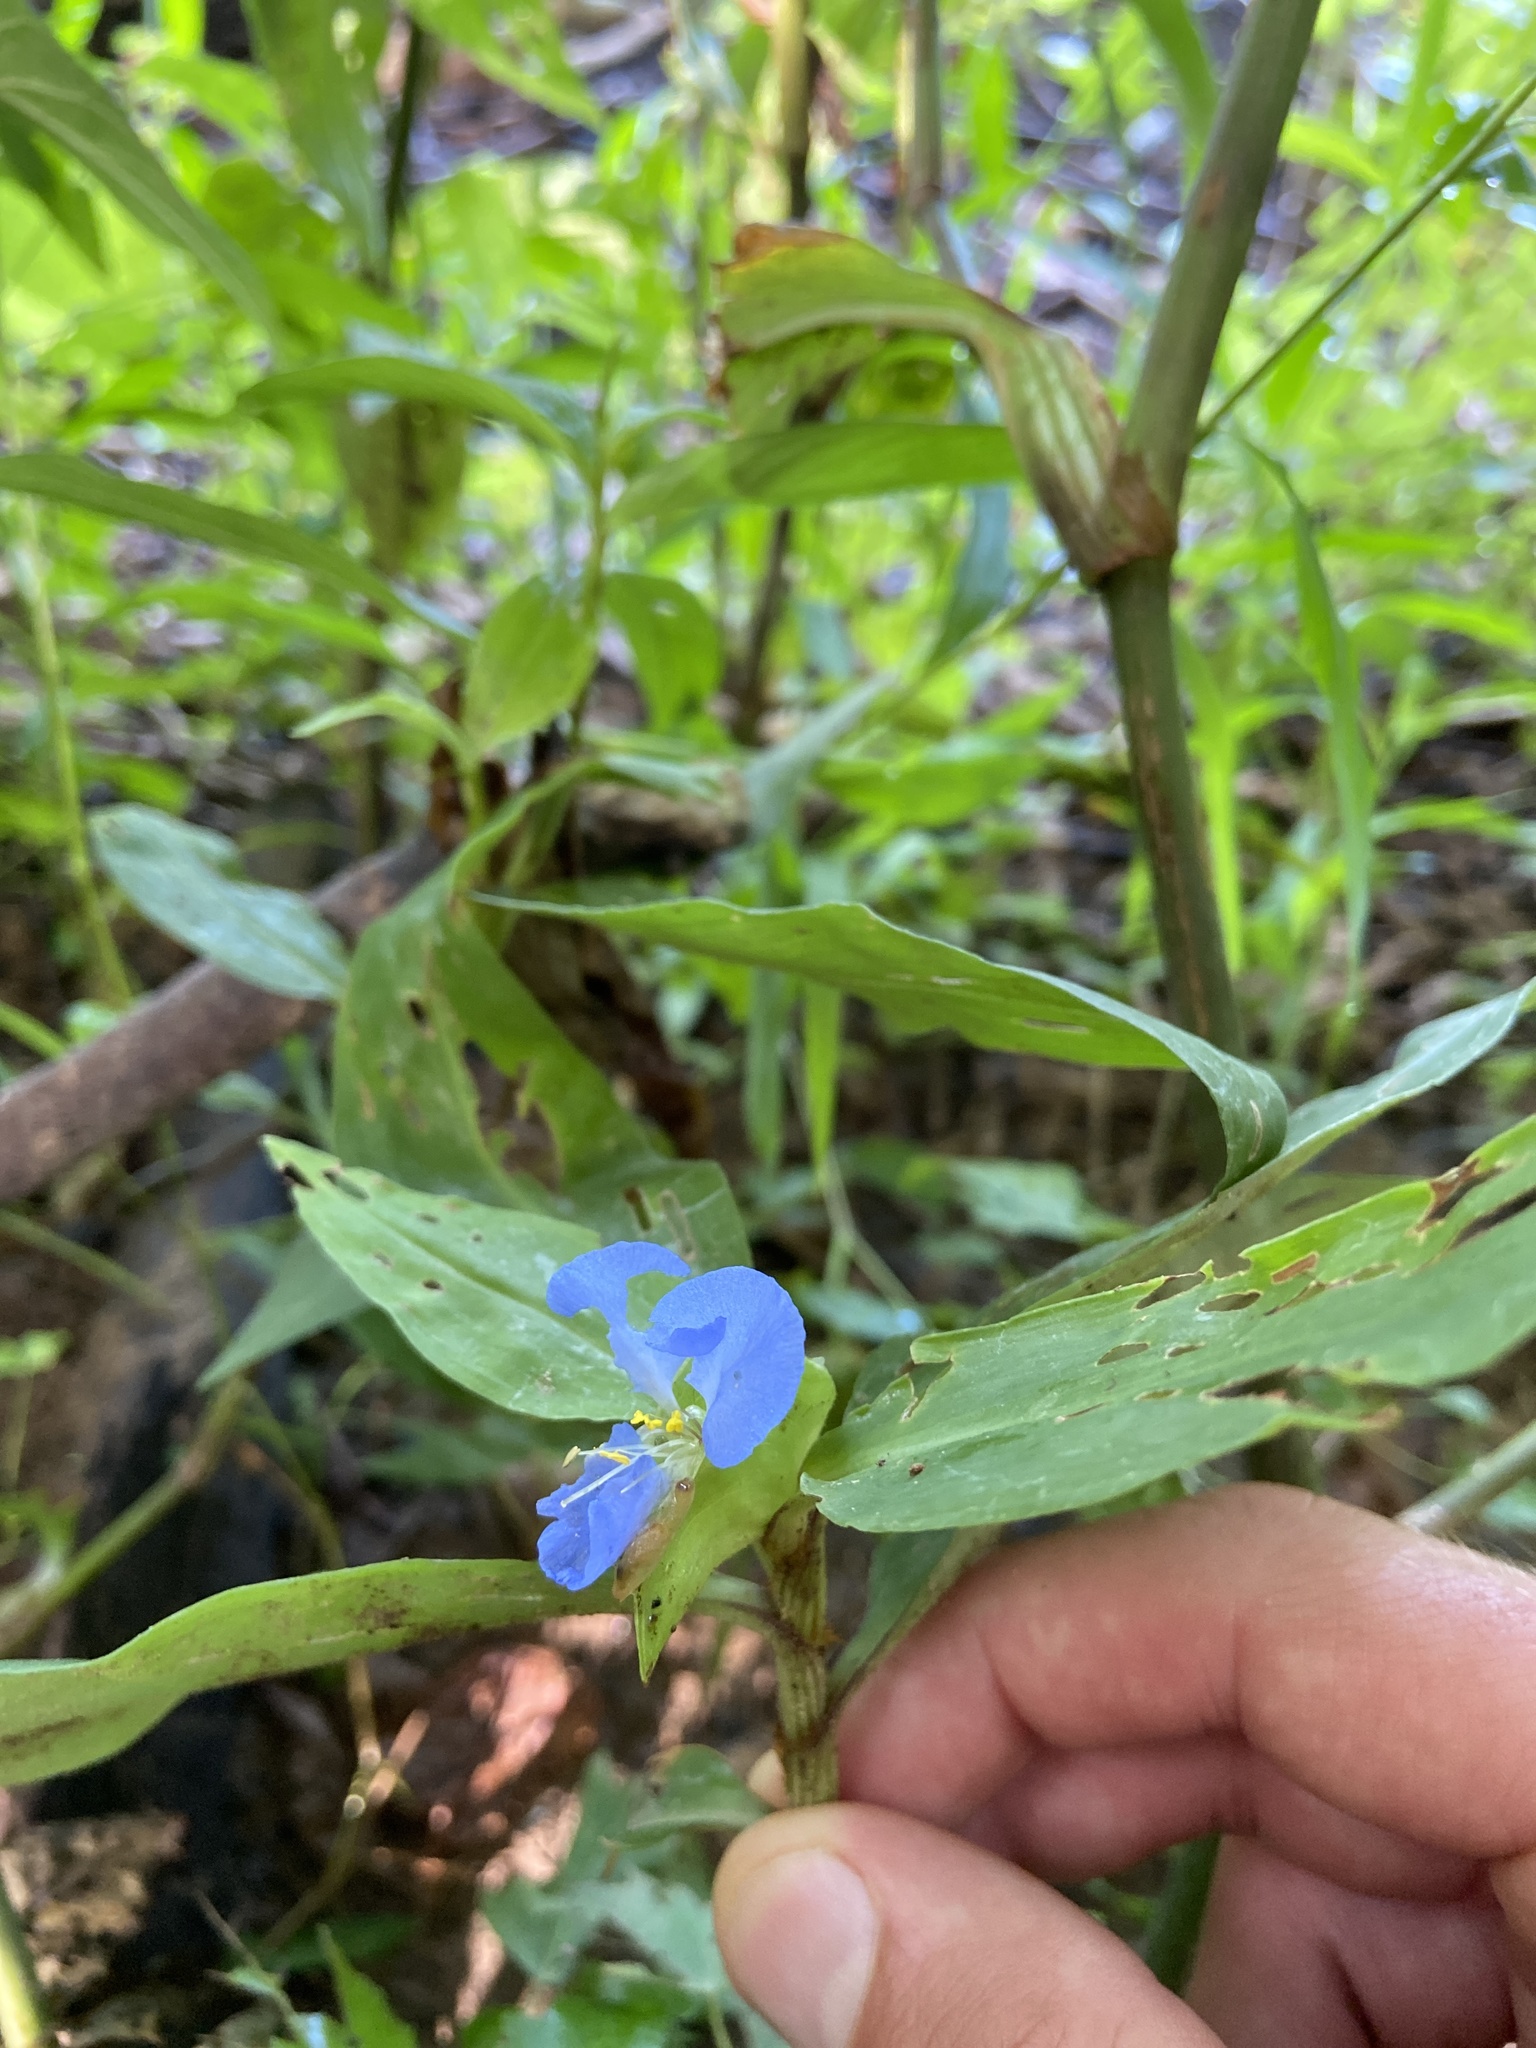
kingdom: Plantae
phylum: Tracheophyta
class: Liliopsida
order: Commelinales
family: Commelinaceae
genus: Commelina
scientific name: Commelina virginica
